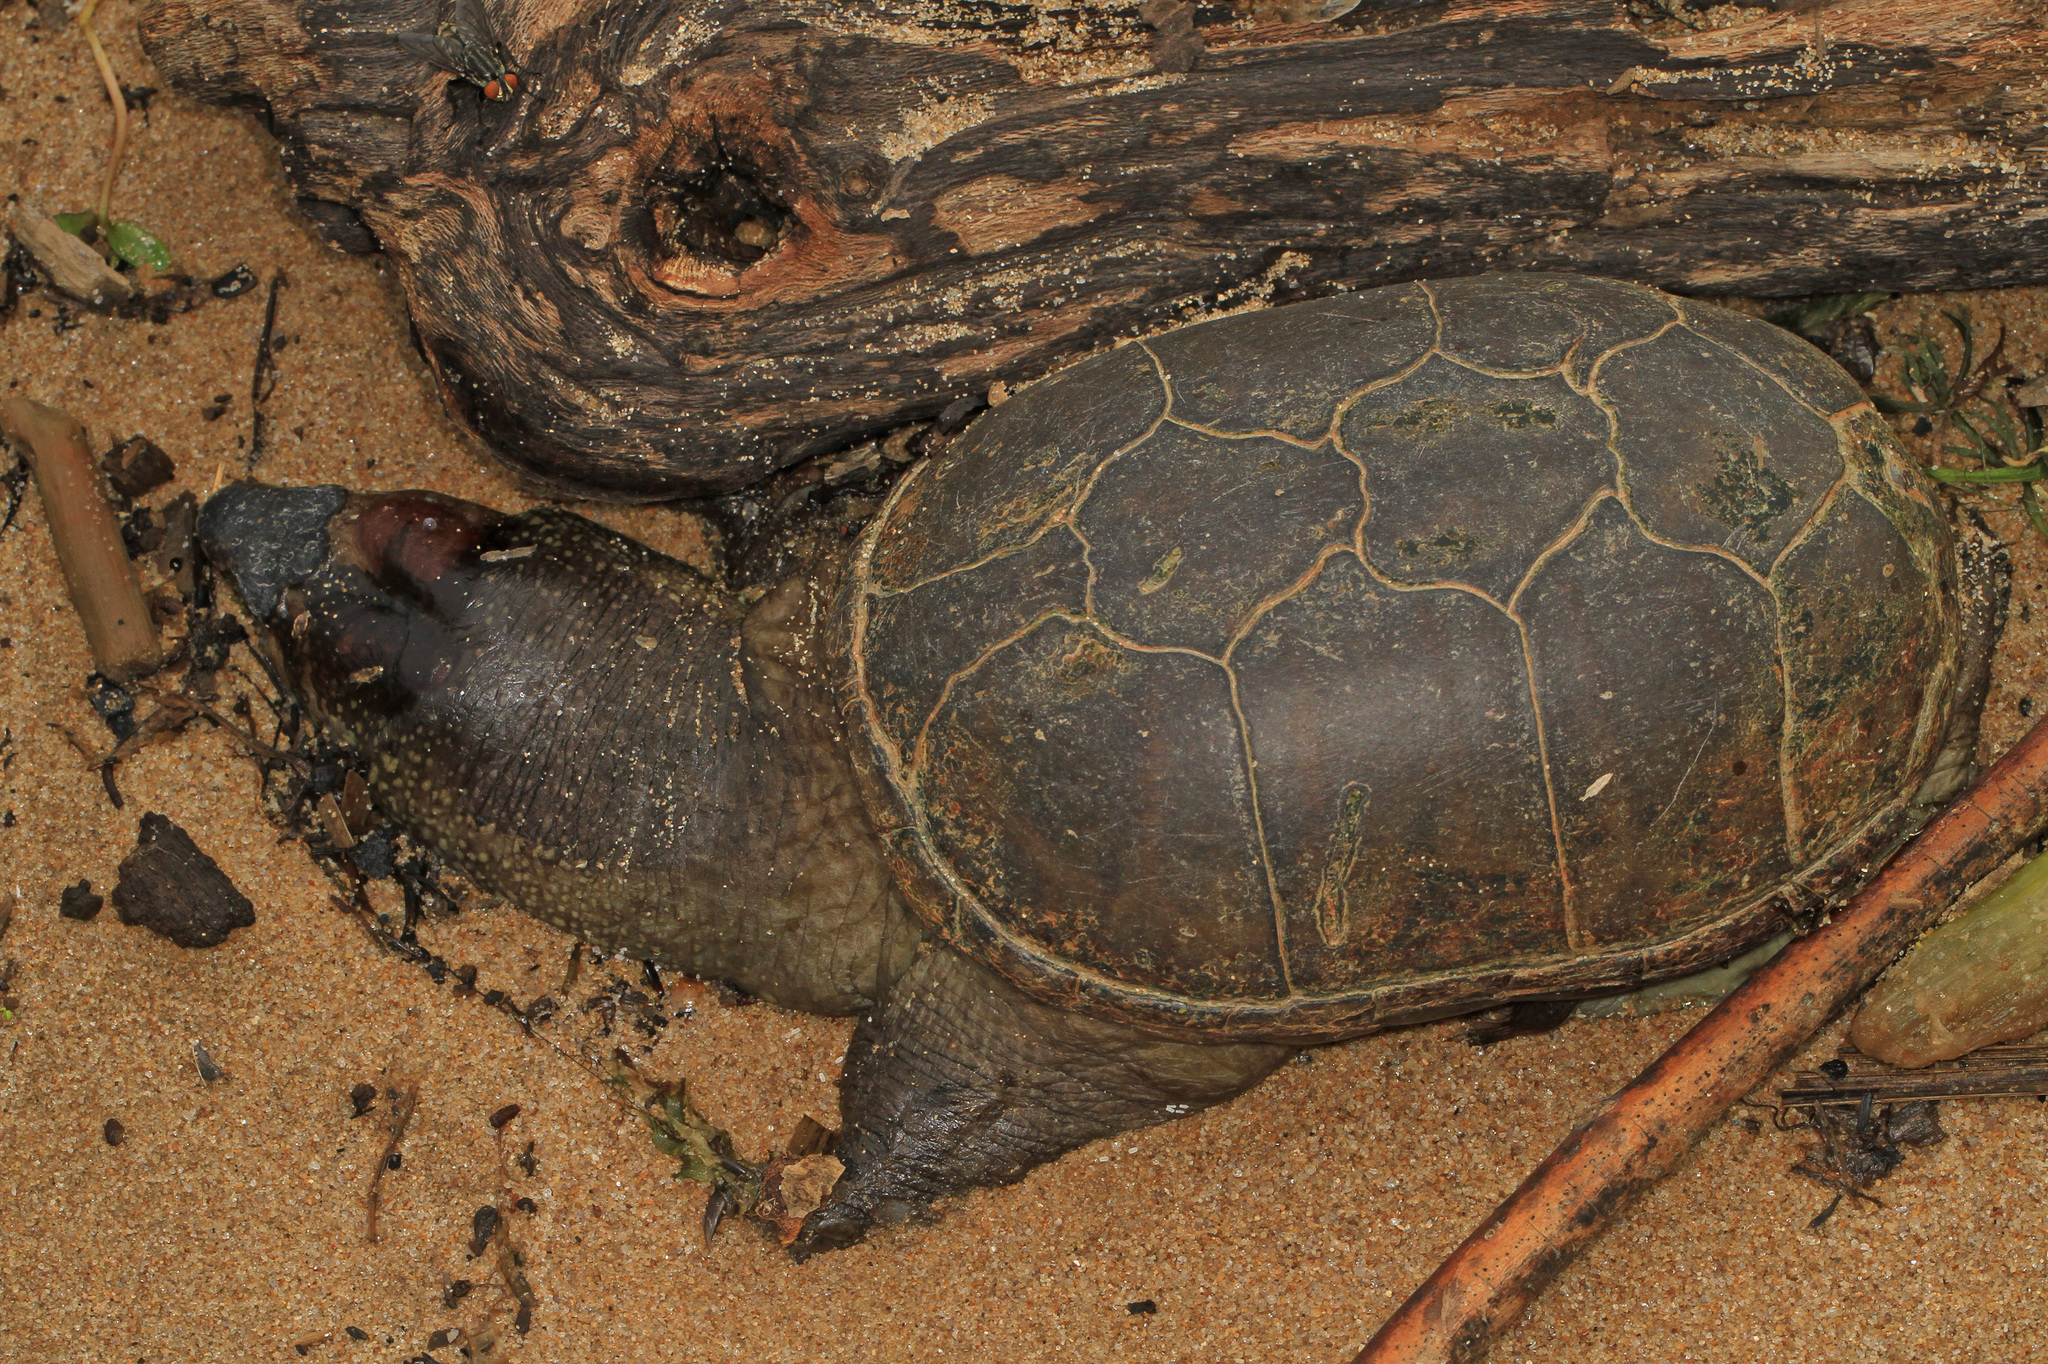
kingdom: Animalia
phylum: Chordata
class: Testudines
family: Kinosternidae
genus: Kinosternon
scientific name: Kinosternon subrubrum
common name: Eastern mud turtle
